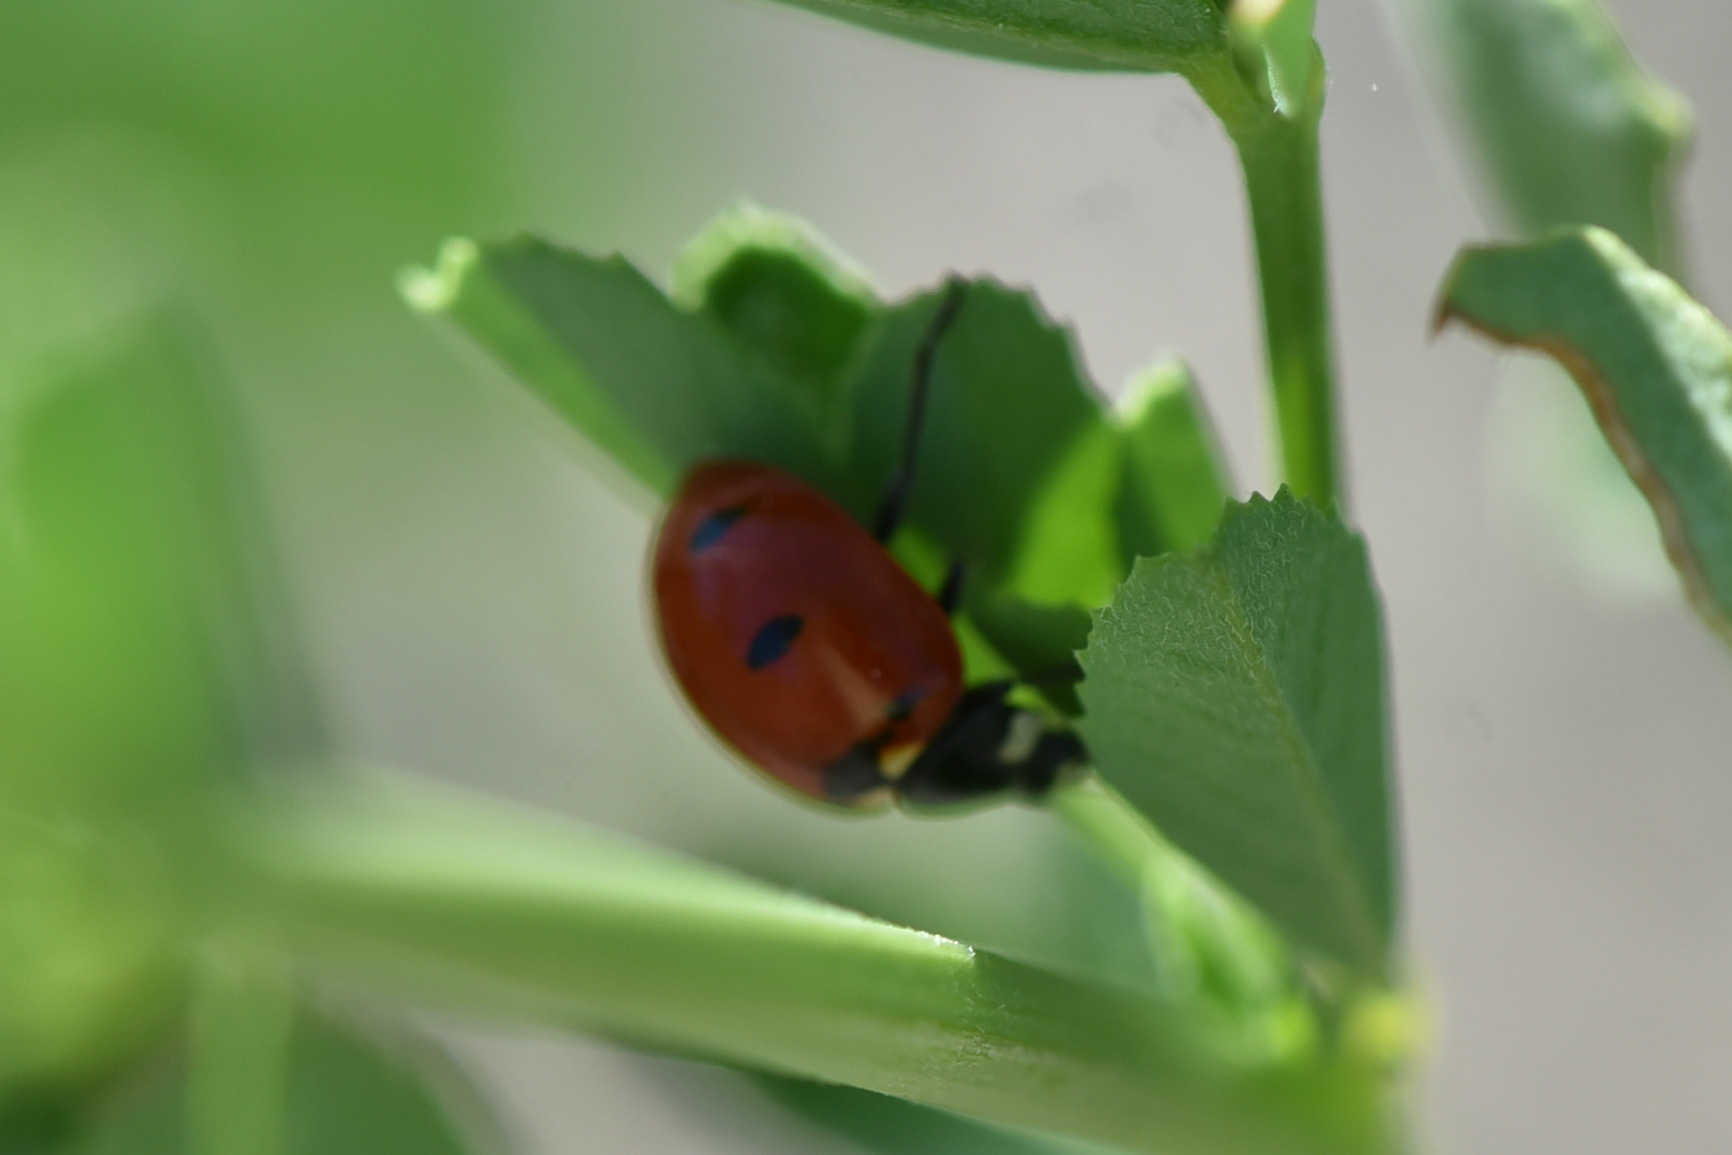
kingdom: Animalia
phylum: Arthropoda
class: Insecta
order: Coleoptera
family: Coccinellidae
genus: Coccinella
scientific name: Coccinella transversoguttata
